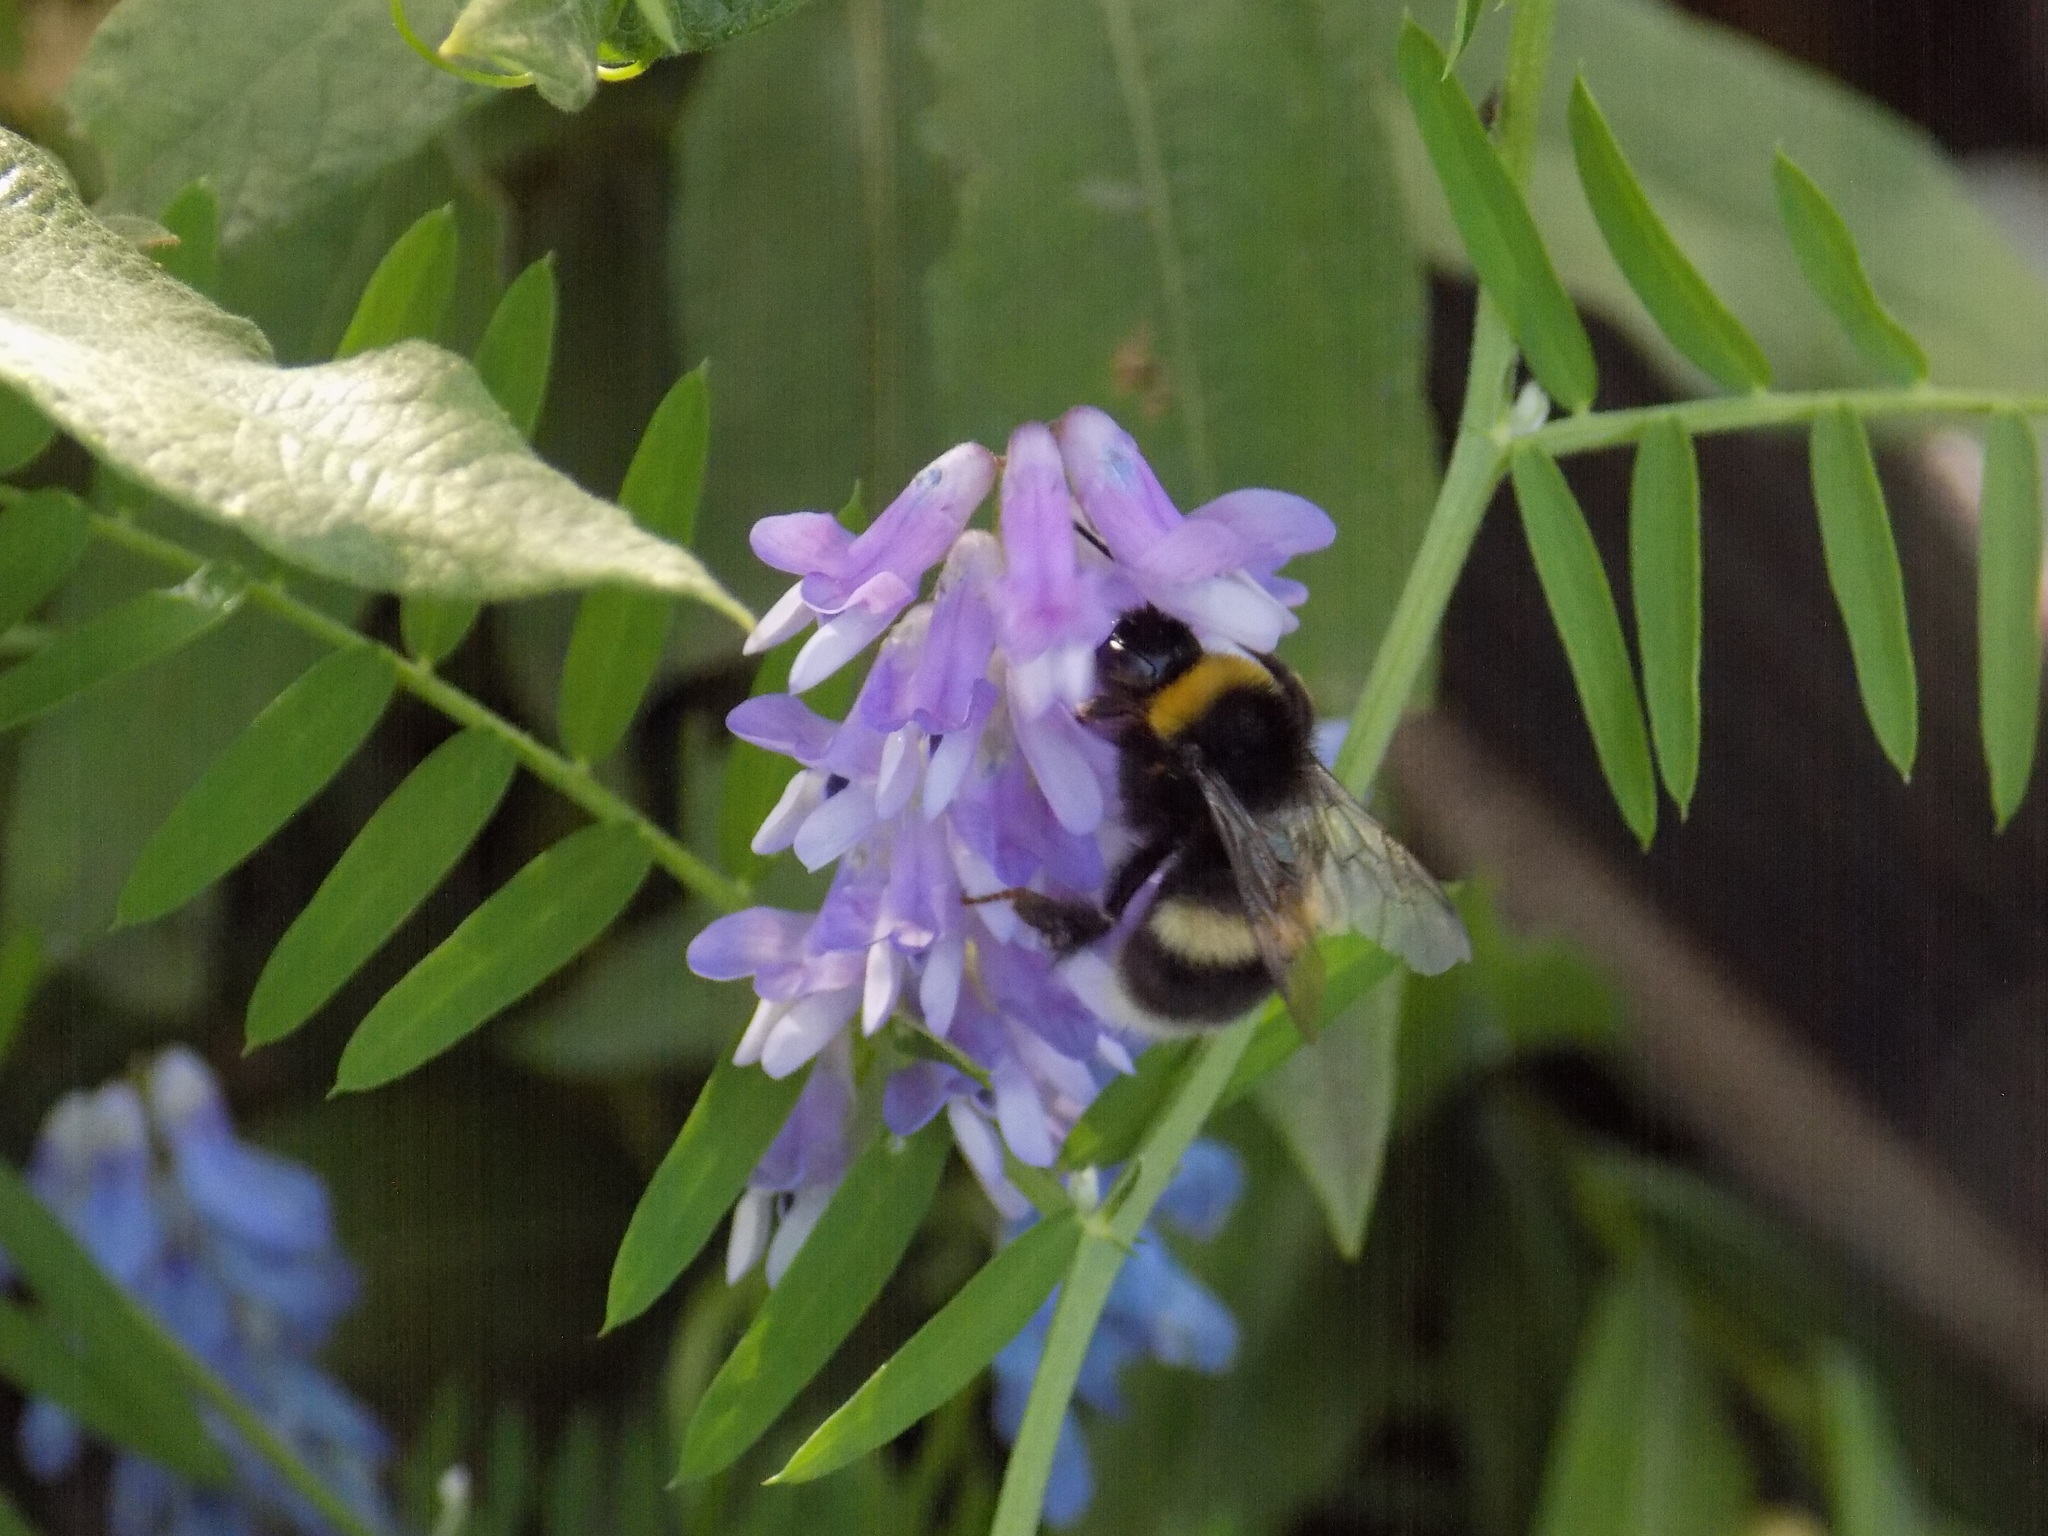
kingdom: Animalia
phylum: Arthropoda
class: Insecta
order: Hymenoptera
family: Apidae
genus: Bombus
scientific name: Bombus
